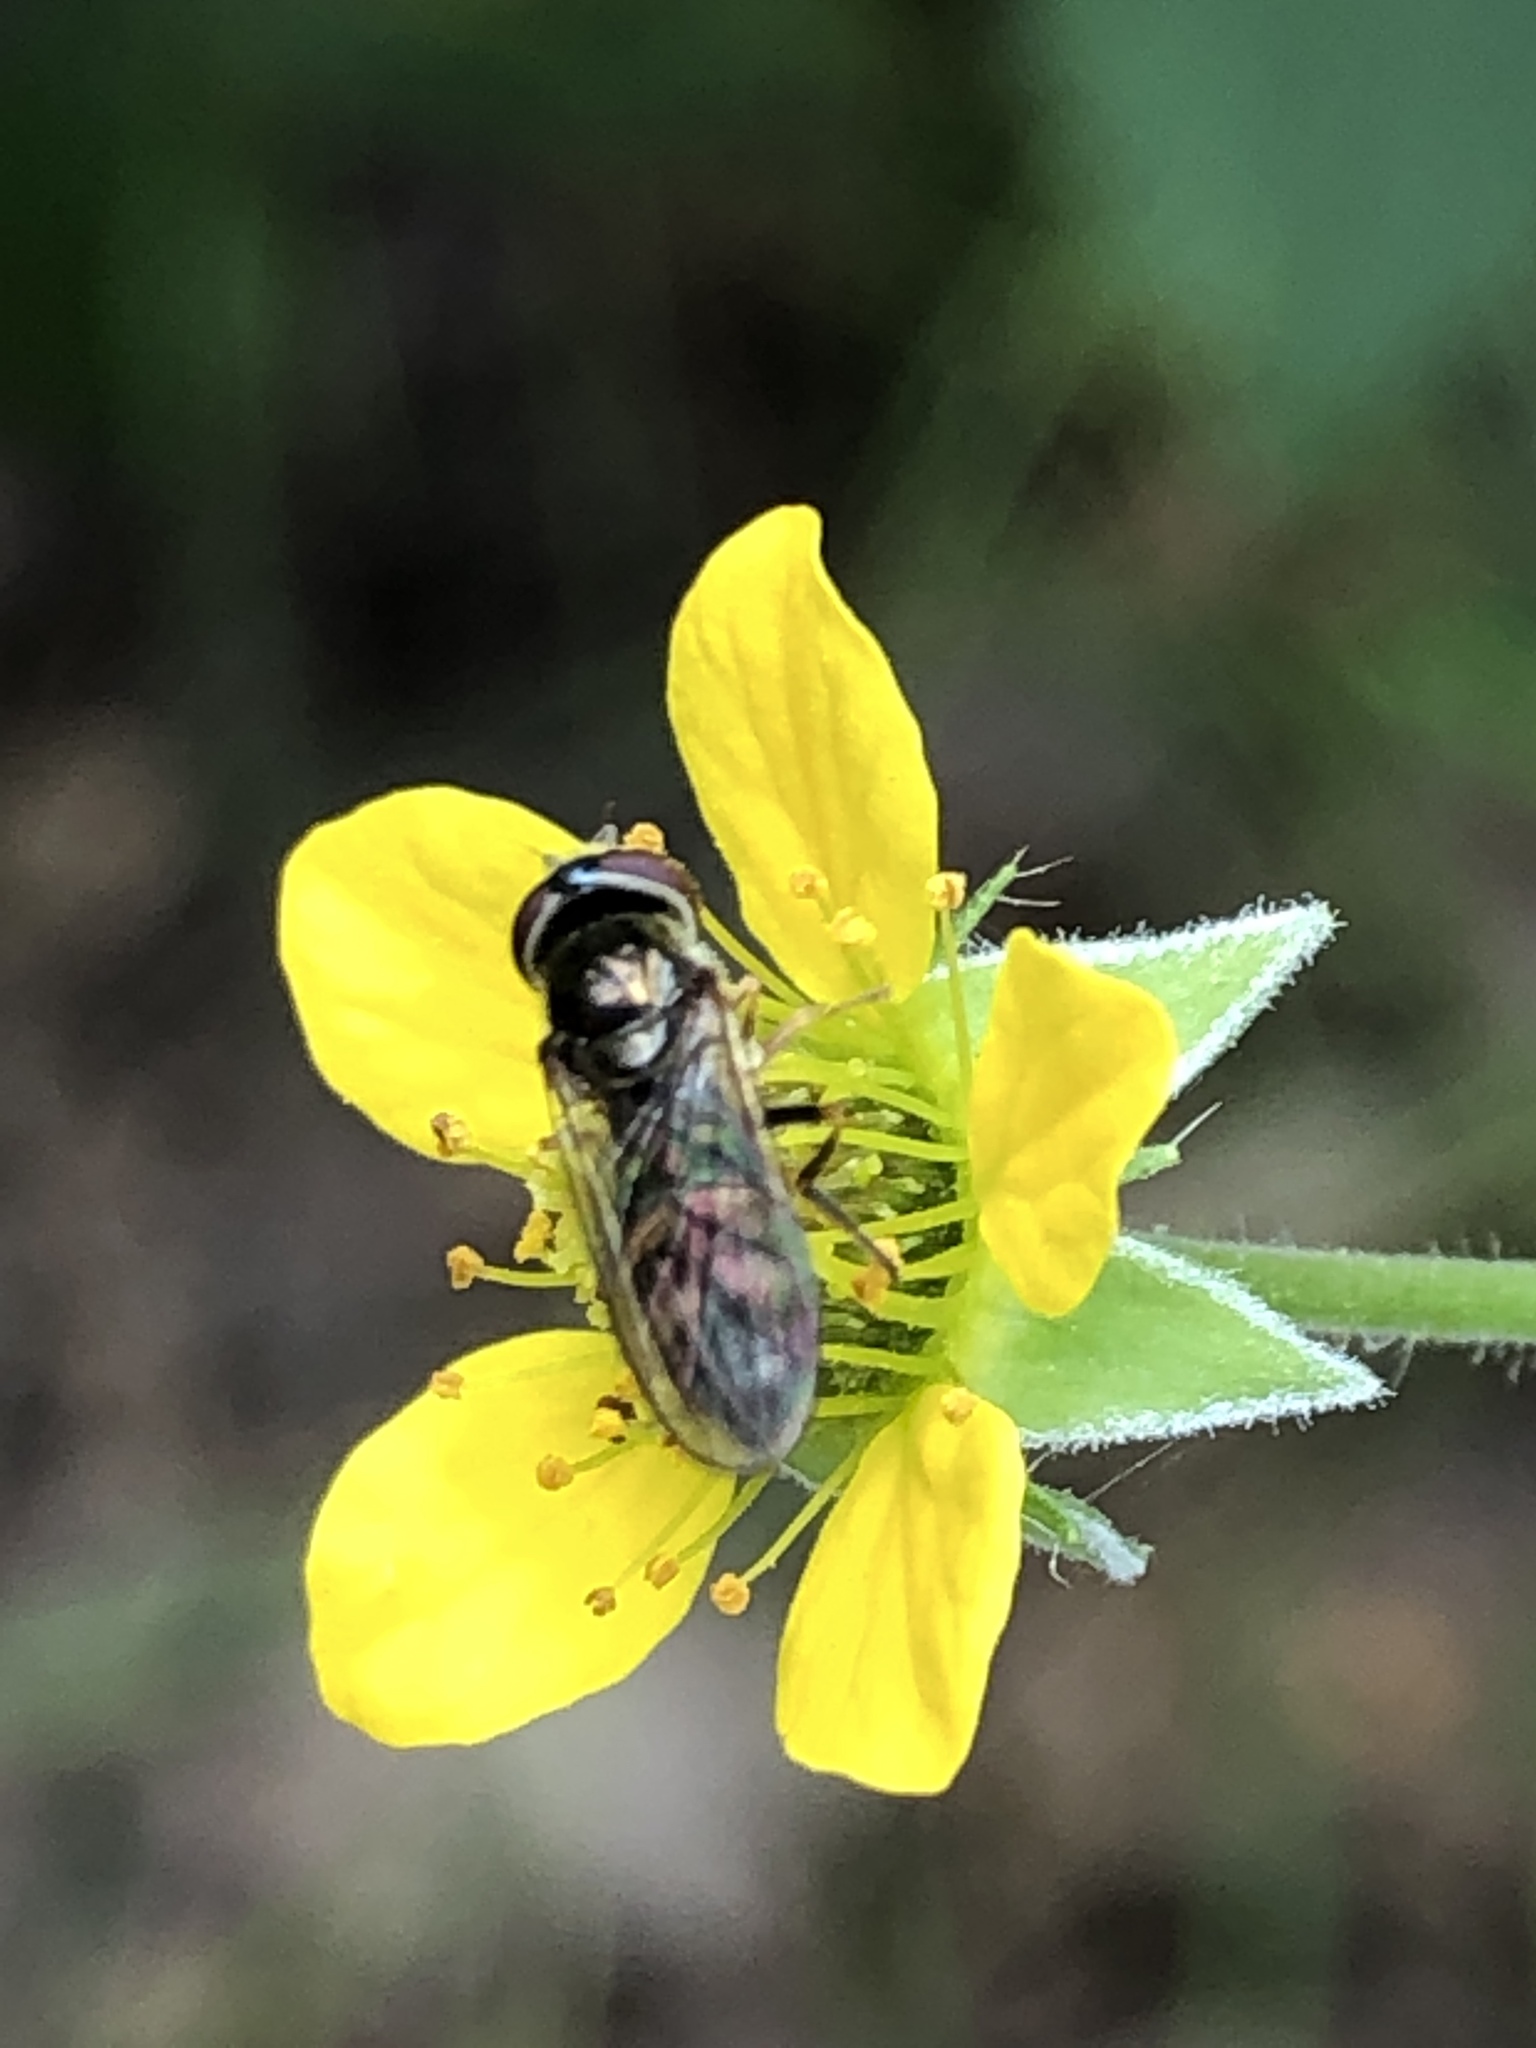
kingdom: Animalia
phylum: Arthropoda
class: Insecta
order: Diptera
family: Syrphidae
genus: Platycheirus
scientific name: Platycheirus
